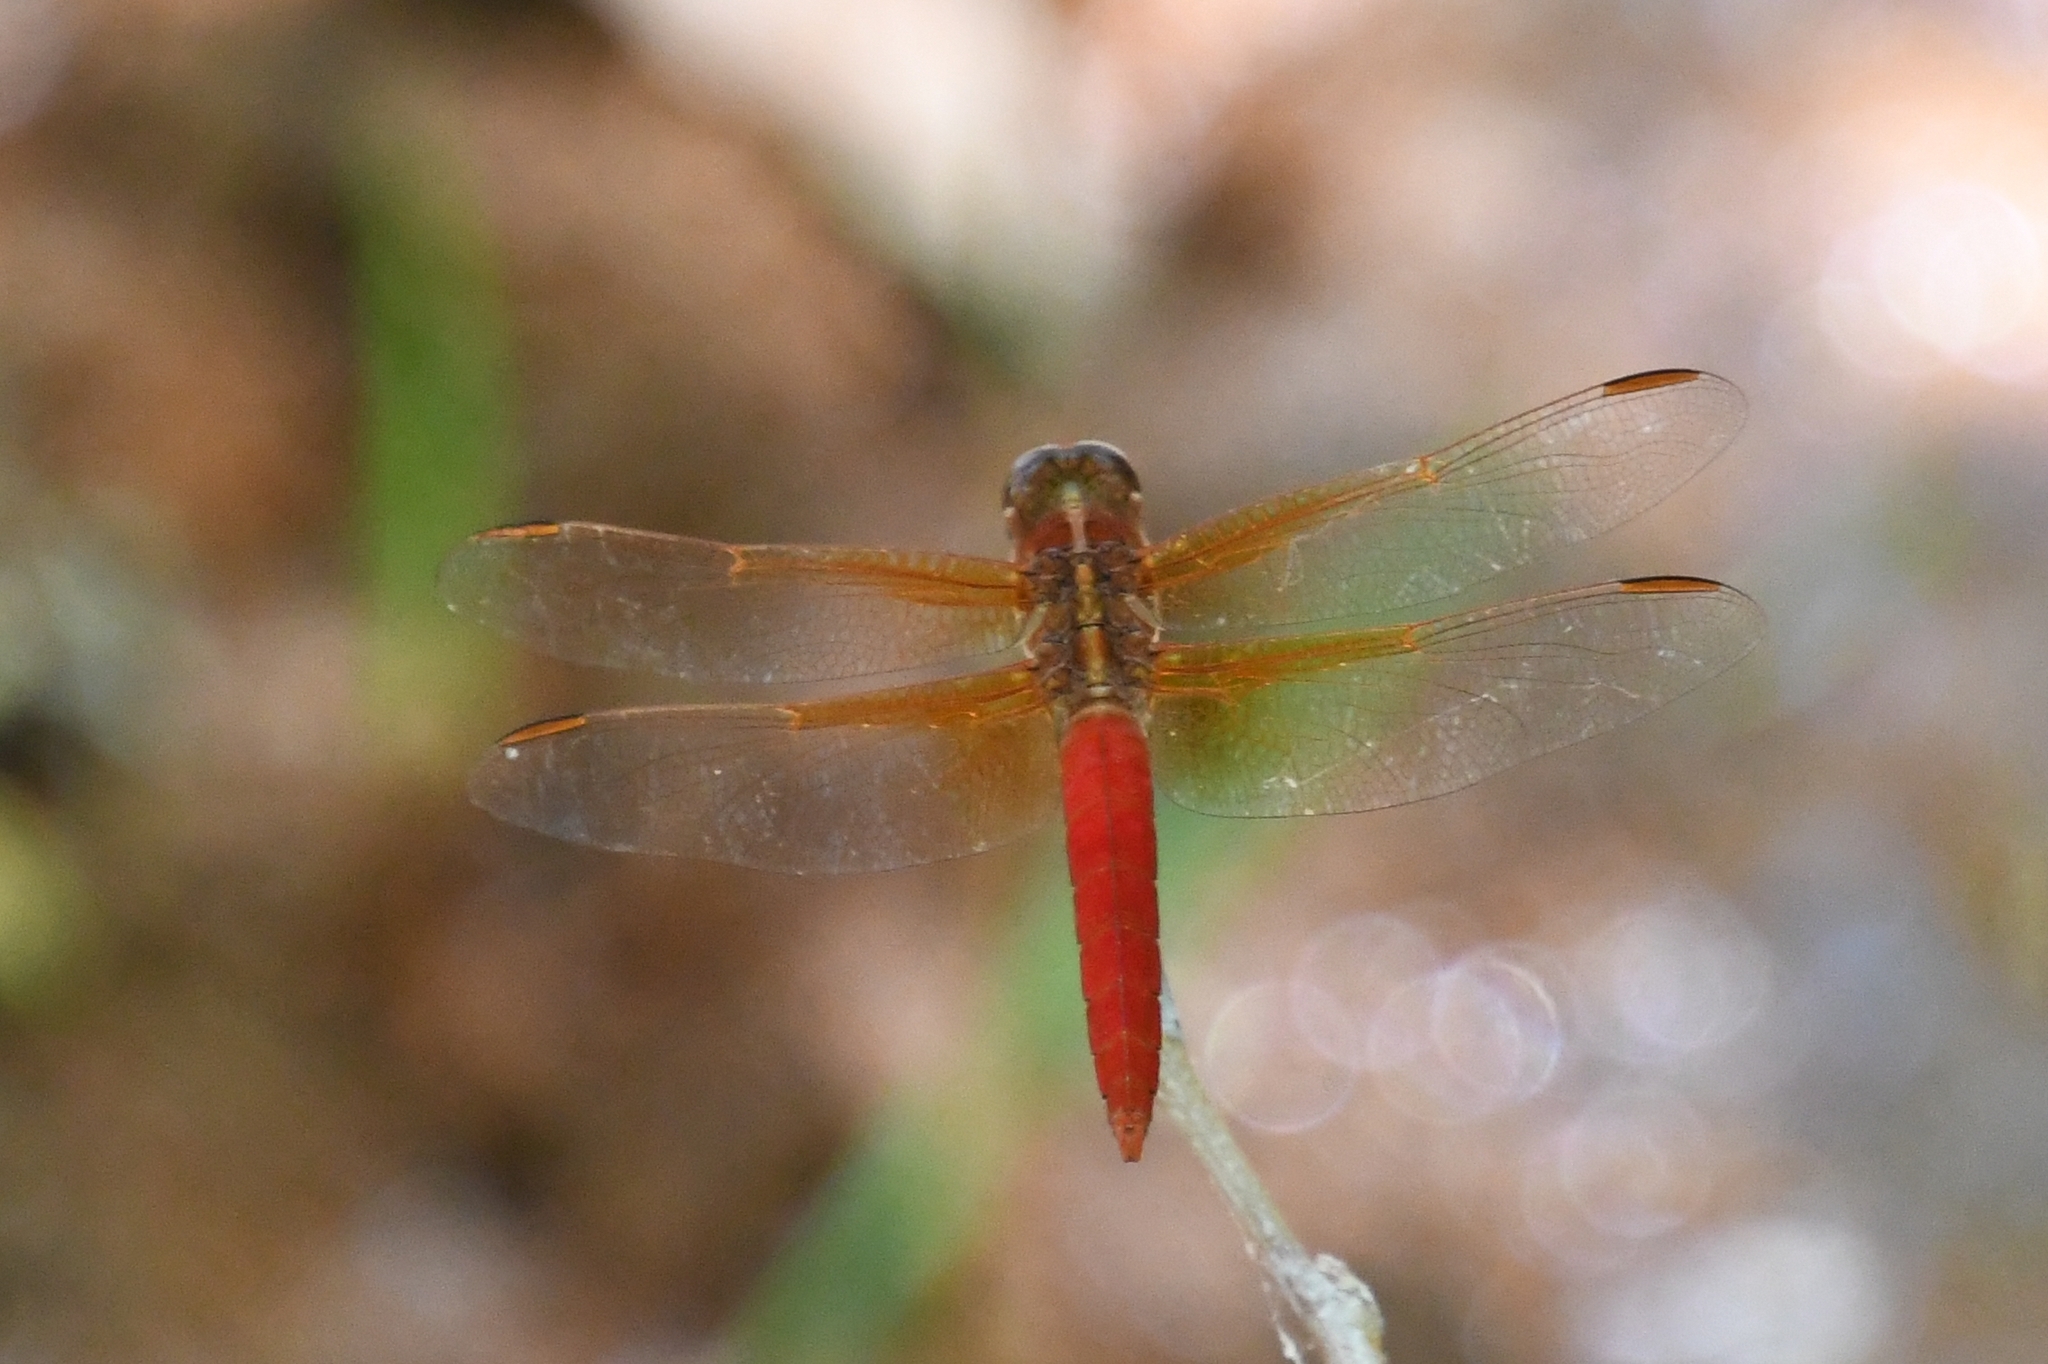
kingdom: Animalia
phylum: Arthropoda
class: Insecta
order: Odonata
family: Libellulidae
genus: Libellula
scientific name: Libellula croceipennis
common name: Neon skimmer
